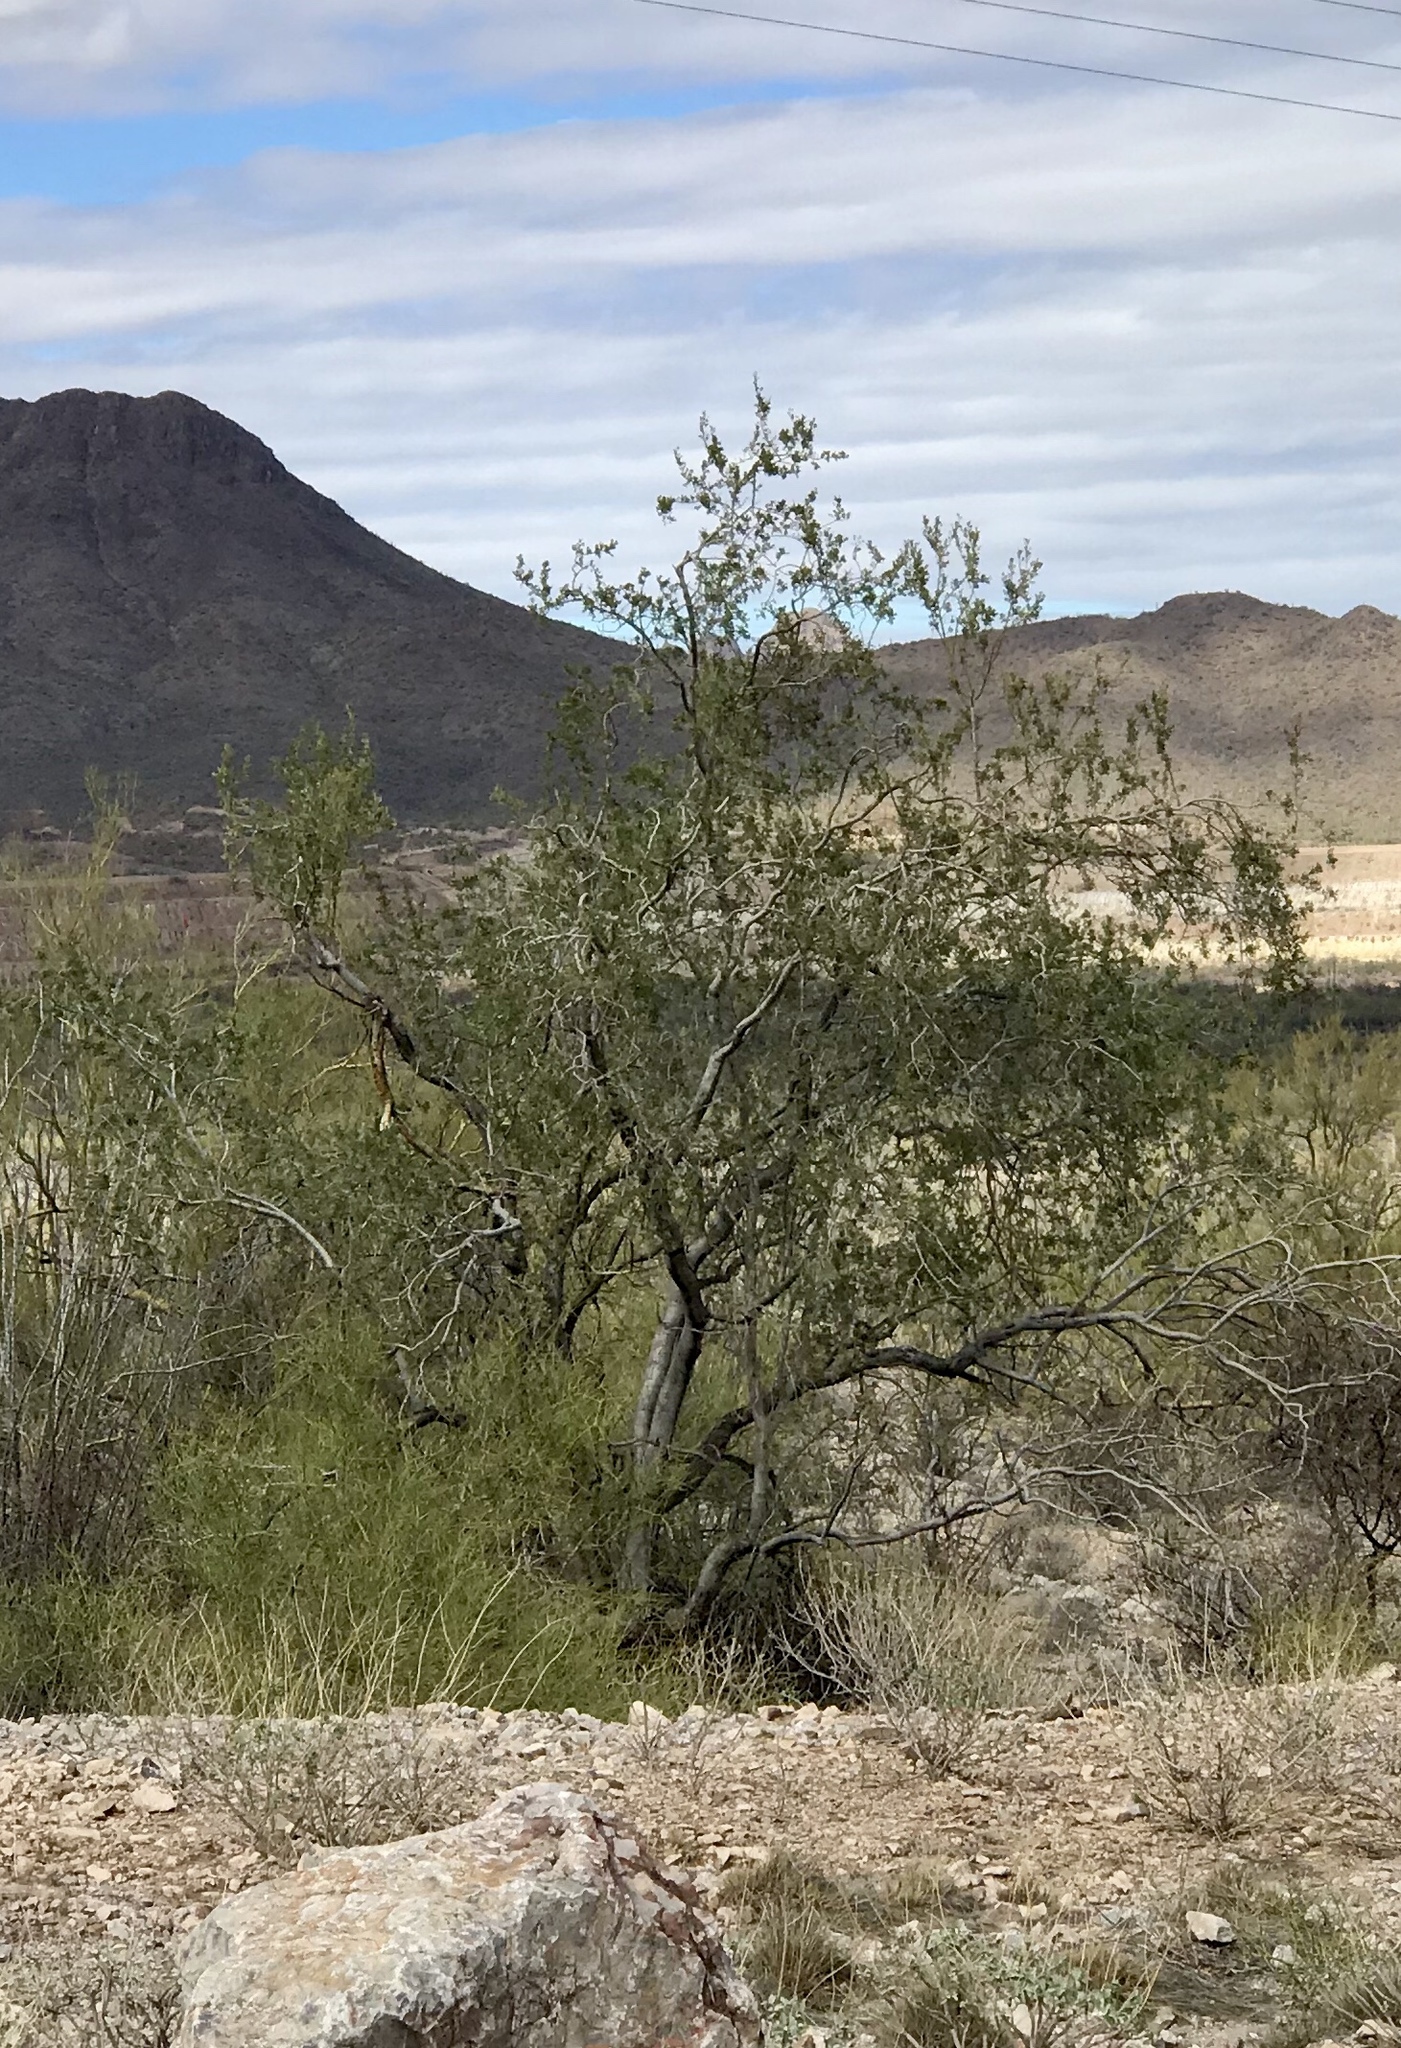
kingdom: Plantae
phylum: Tracheophyta
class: Magnoliopsida
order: Fabales
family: Fabaceae
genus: Olneya
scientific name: Olneya tesota
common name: Desert ironwood
